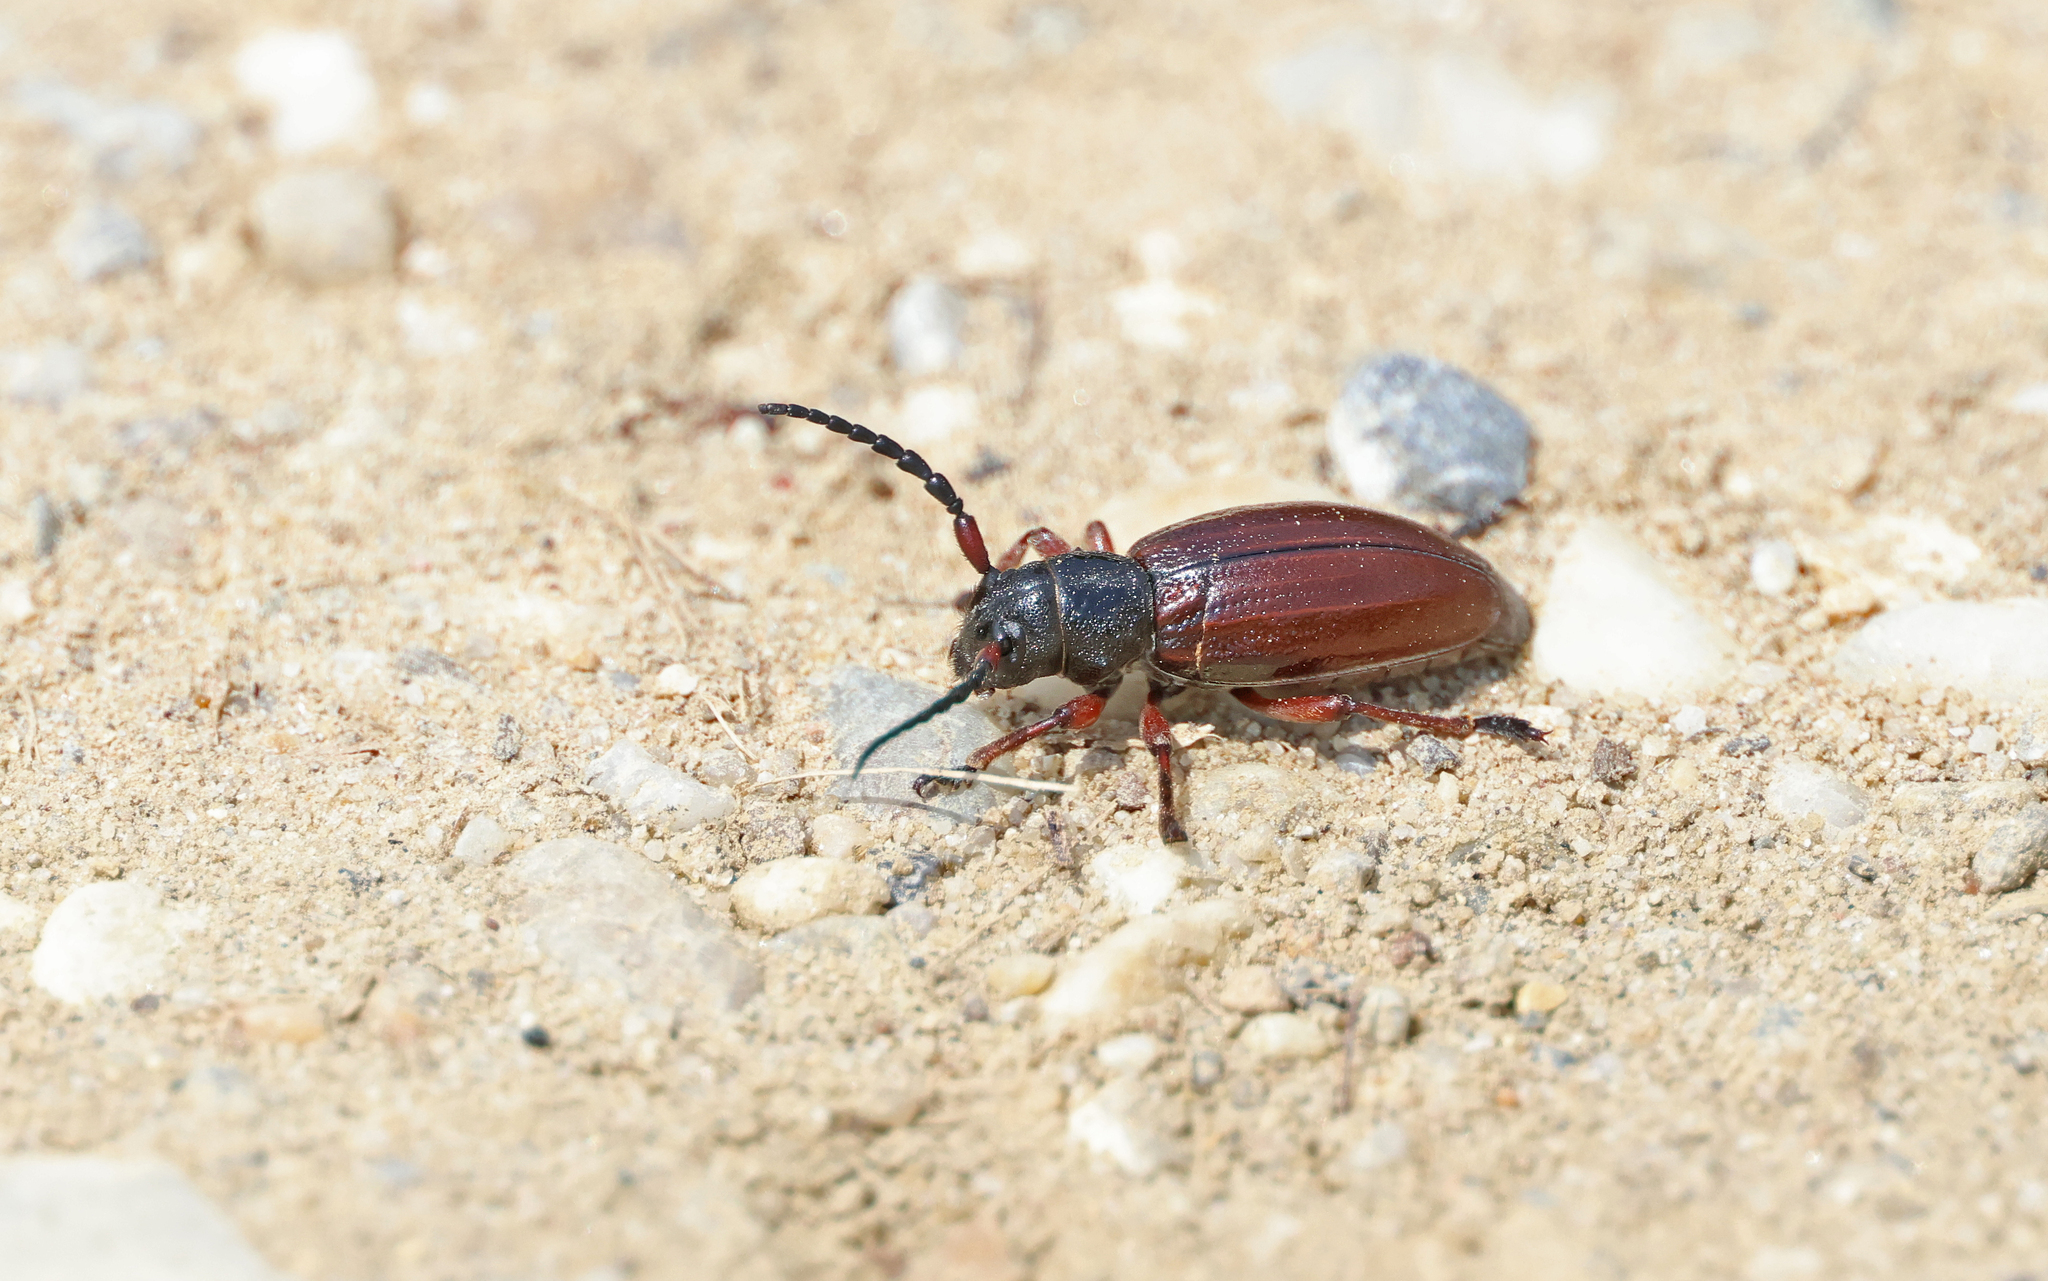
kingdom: Animalia
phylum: Arthropoda
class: Insecta
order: Coleoptera
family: Cerambycidae
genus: Dorcadion
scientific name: Dorcadion fulvum
